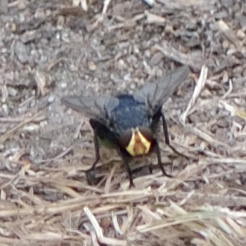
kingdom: Animalia
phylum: Arthropoda
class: Insecta
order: Diptera
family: Calliphoridae
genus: Cynomya
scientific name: Cynomya mortuorum
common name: Bluebottle blow fly
